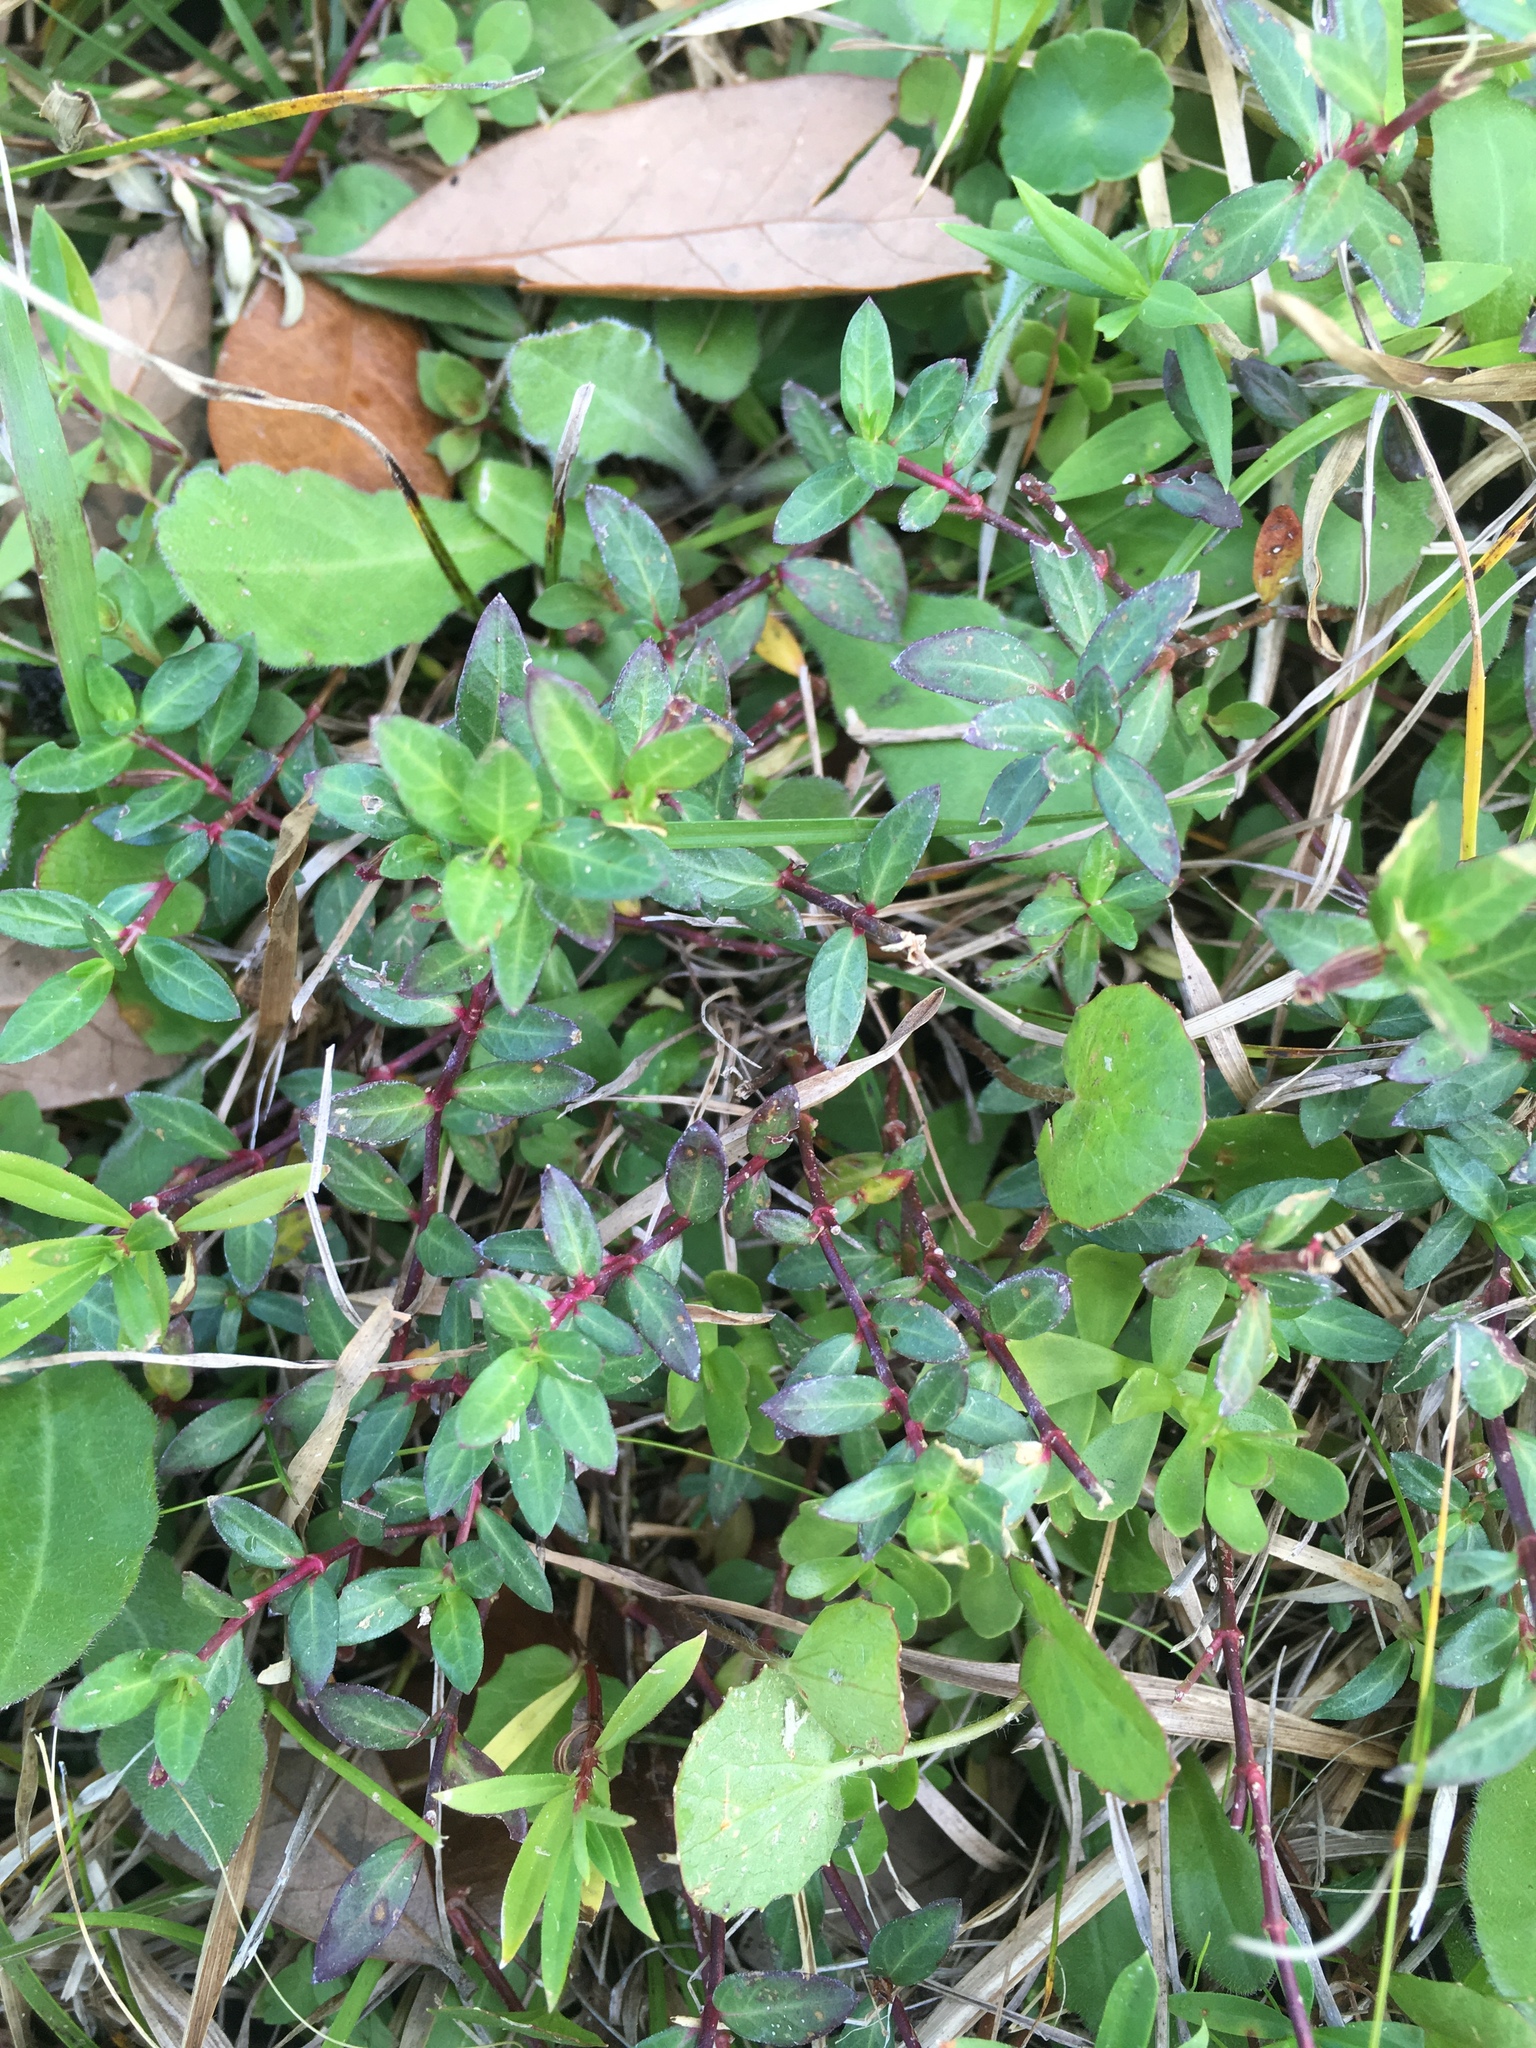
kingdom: Plantae
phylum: Tracheophyta
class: Magnoliopsida
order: Myrtales
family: Lythraceae
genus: Cuphea
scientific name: Cuphea carthagenensis
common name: Colombian waxweed
